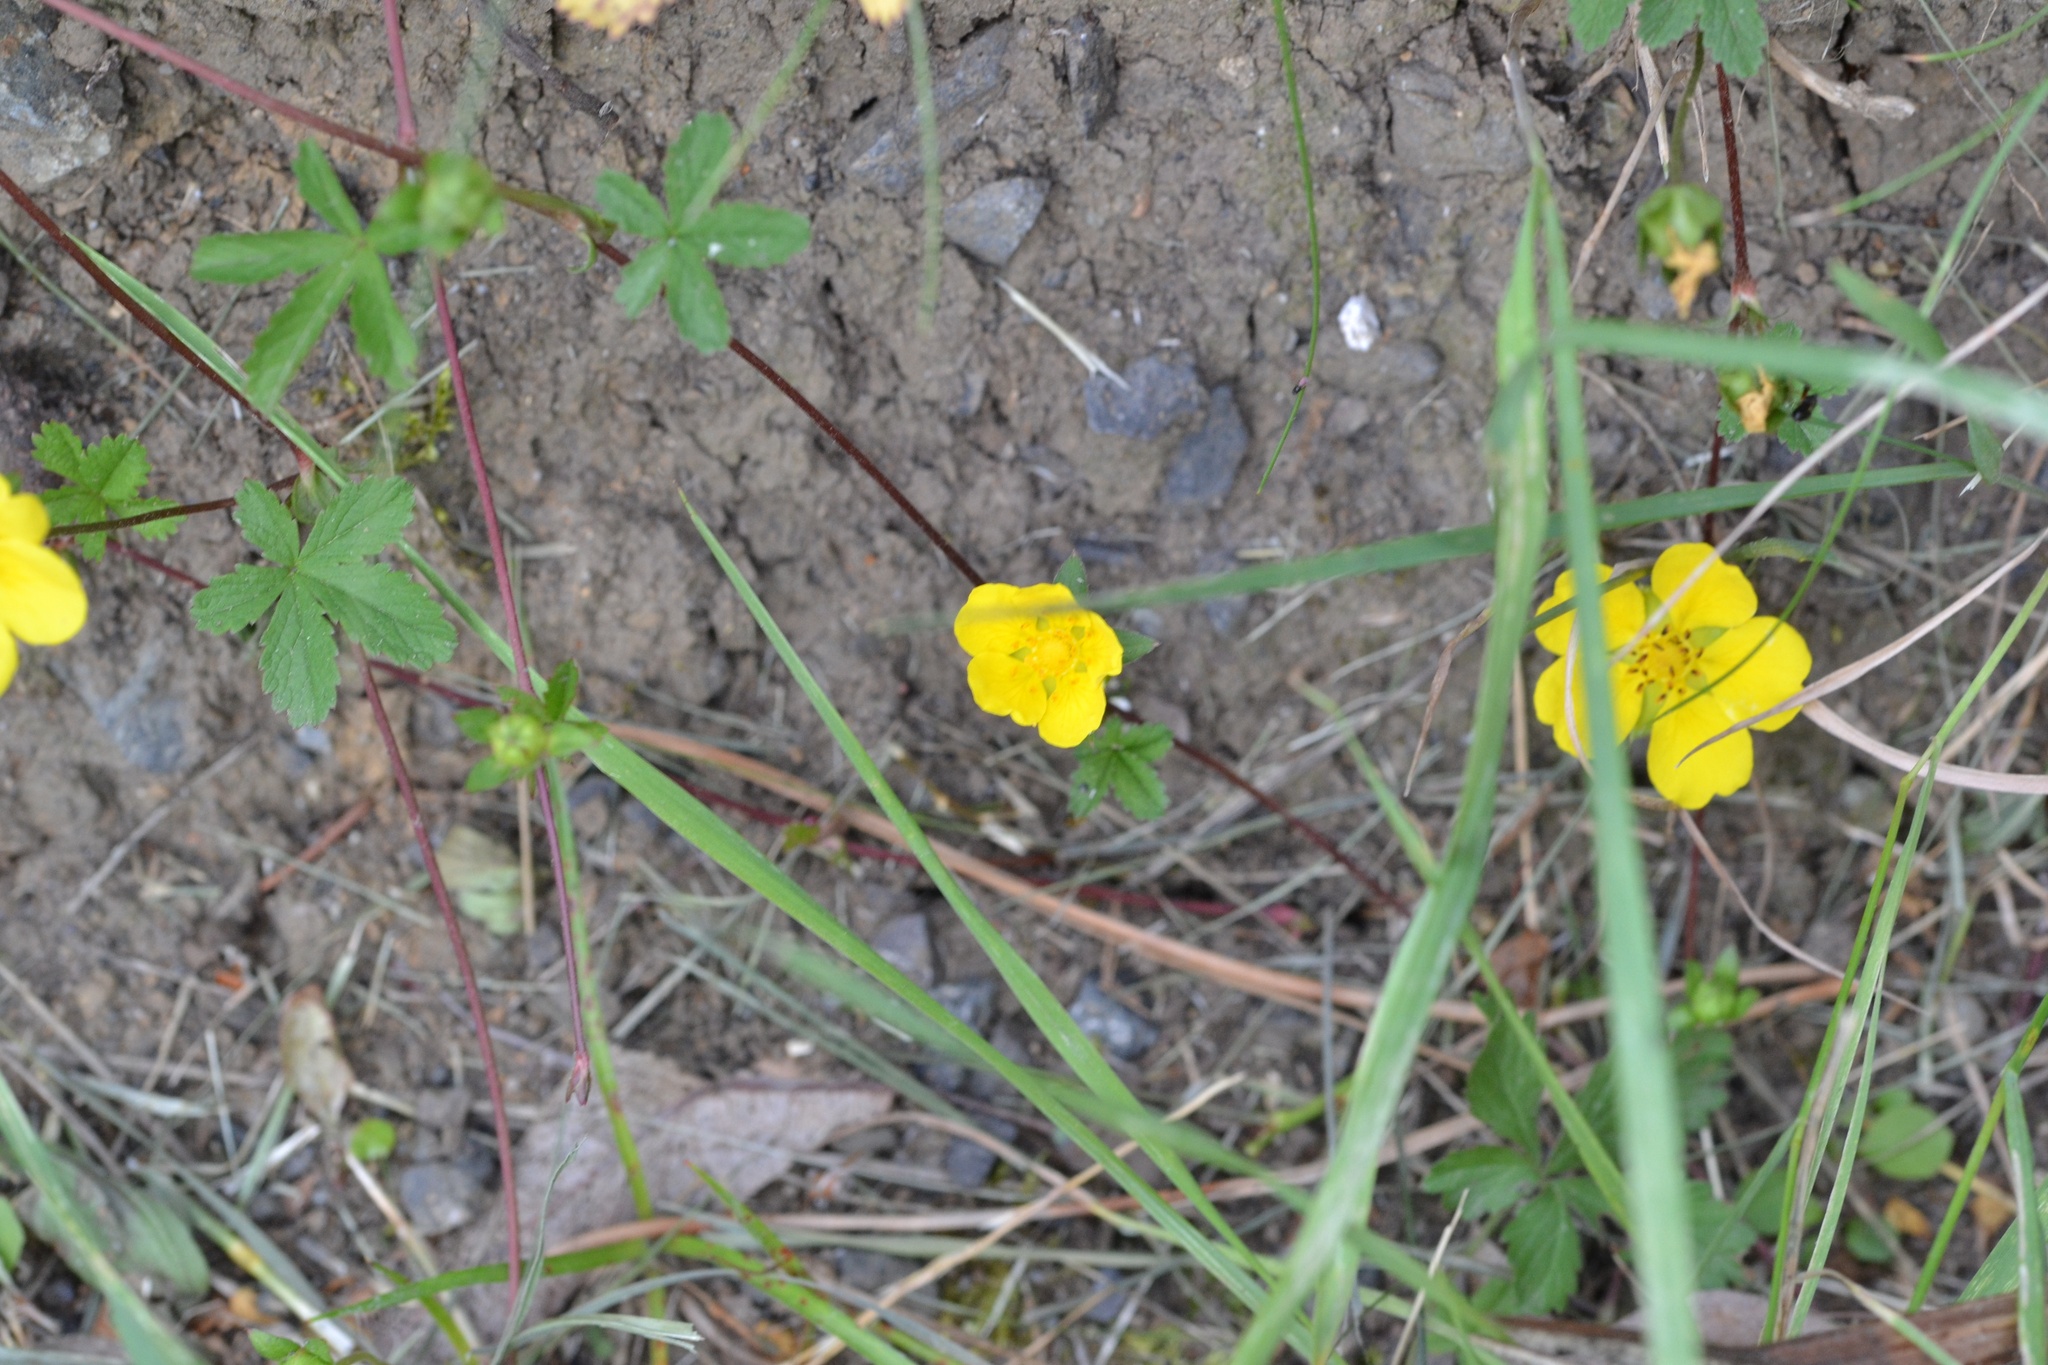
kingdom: Plantae
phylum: Tracheophyta
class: Magnoliopsida
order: Rosales
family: Rosaceae
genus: Potentilla
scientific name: Potentilla reptans
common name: Creeping cinquefoil
